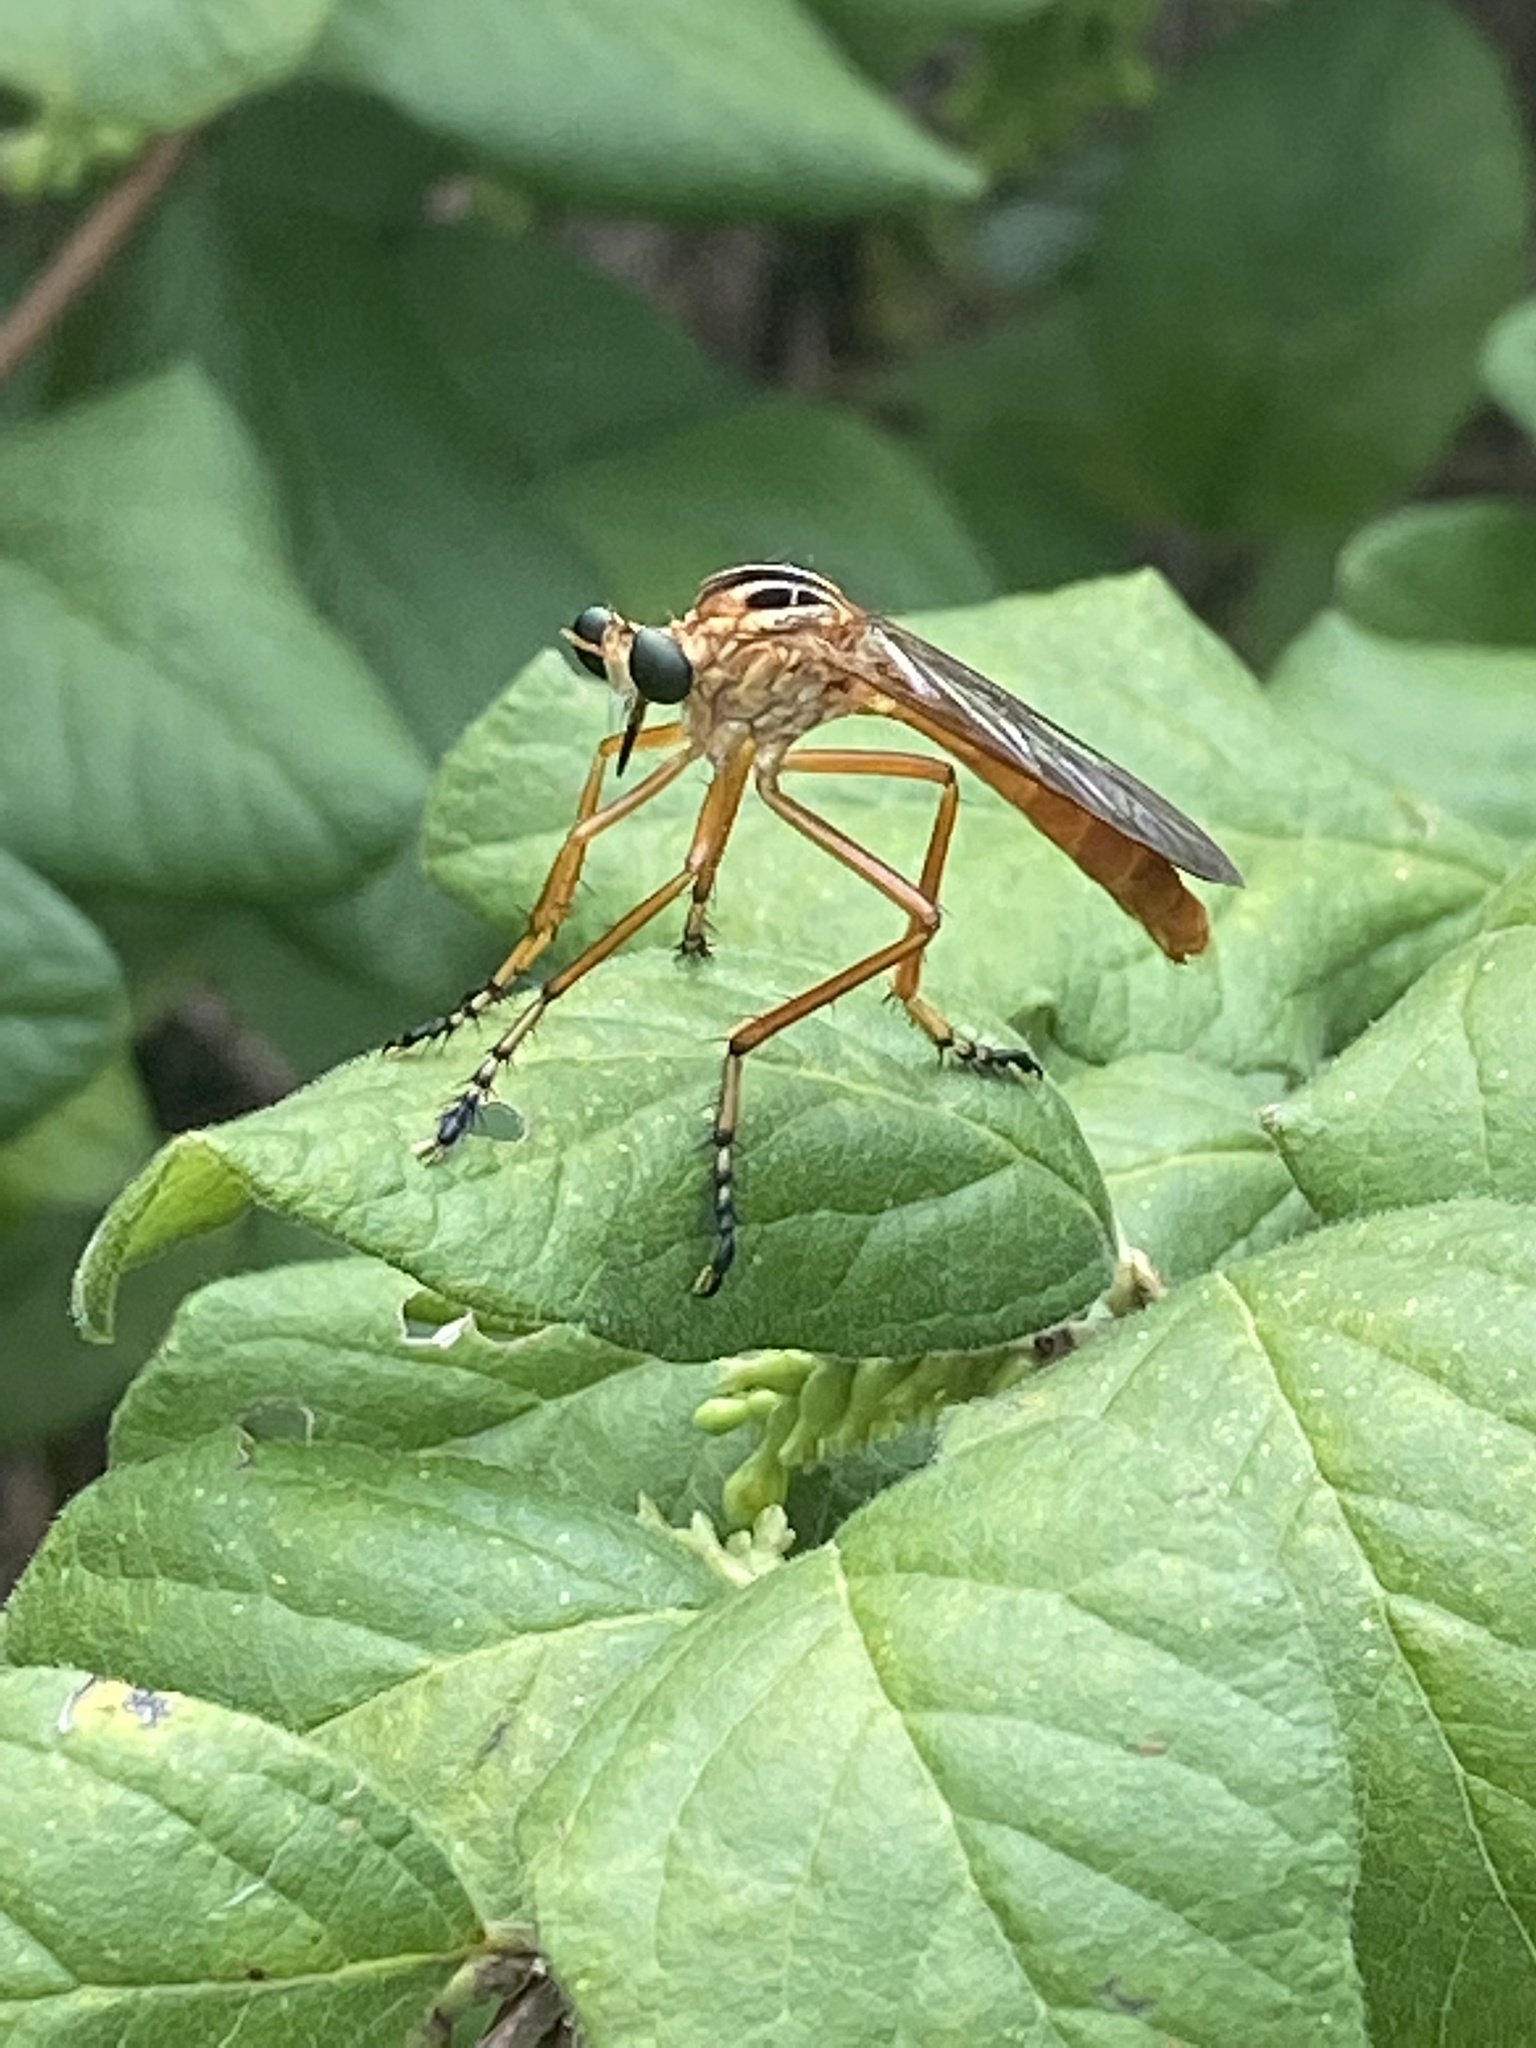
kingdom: Animalia
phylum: Arthropoda
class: Insecta
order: Diptera
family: Asilidae
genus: Diogmites
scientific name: Diogmites neoternatus
